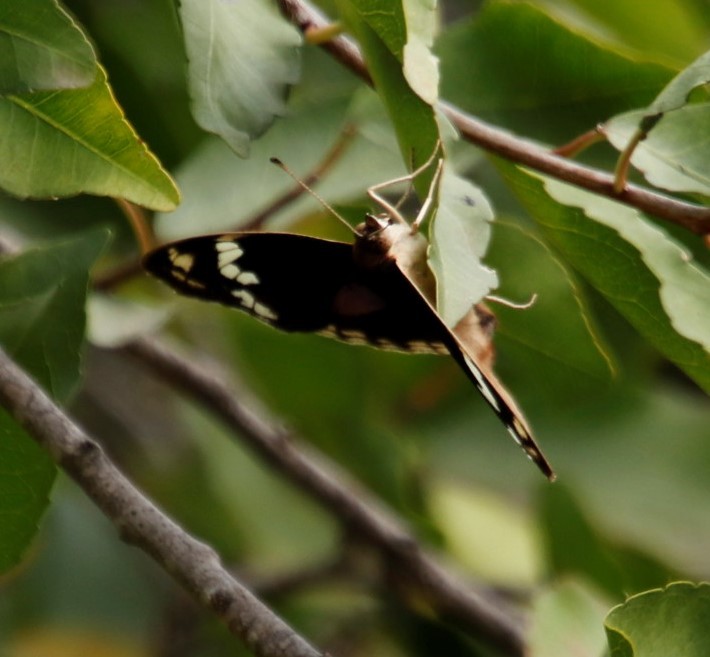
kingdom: Animalia
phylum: Arthropoda
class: Insecta
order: Lepidoptera
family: Nymphalidae
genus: Junonia
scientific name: Junonia oenone
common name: Dark blue pansy
